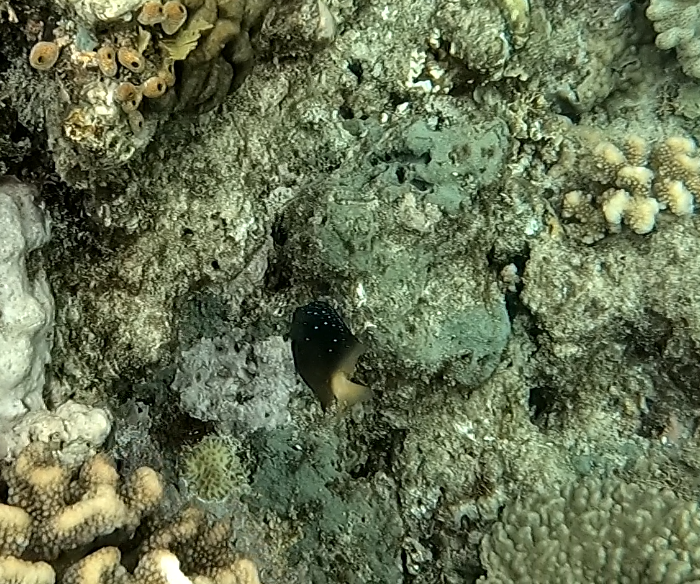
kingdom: Animalia
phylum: Chordata
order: Perciformes
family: Pomacentridae
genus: Plectroglyphidodon
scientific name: Plectroglyphidodon lacrymatus
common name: Jewel damsel
